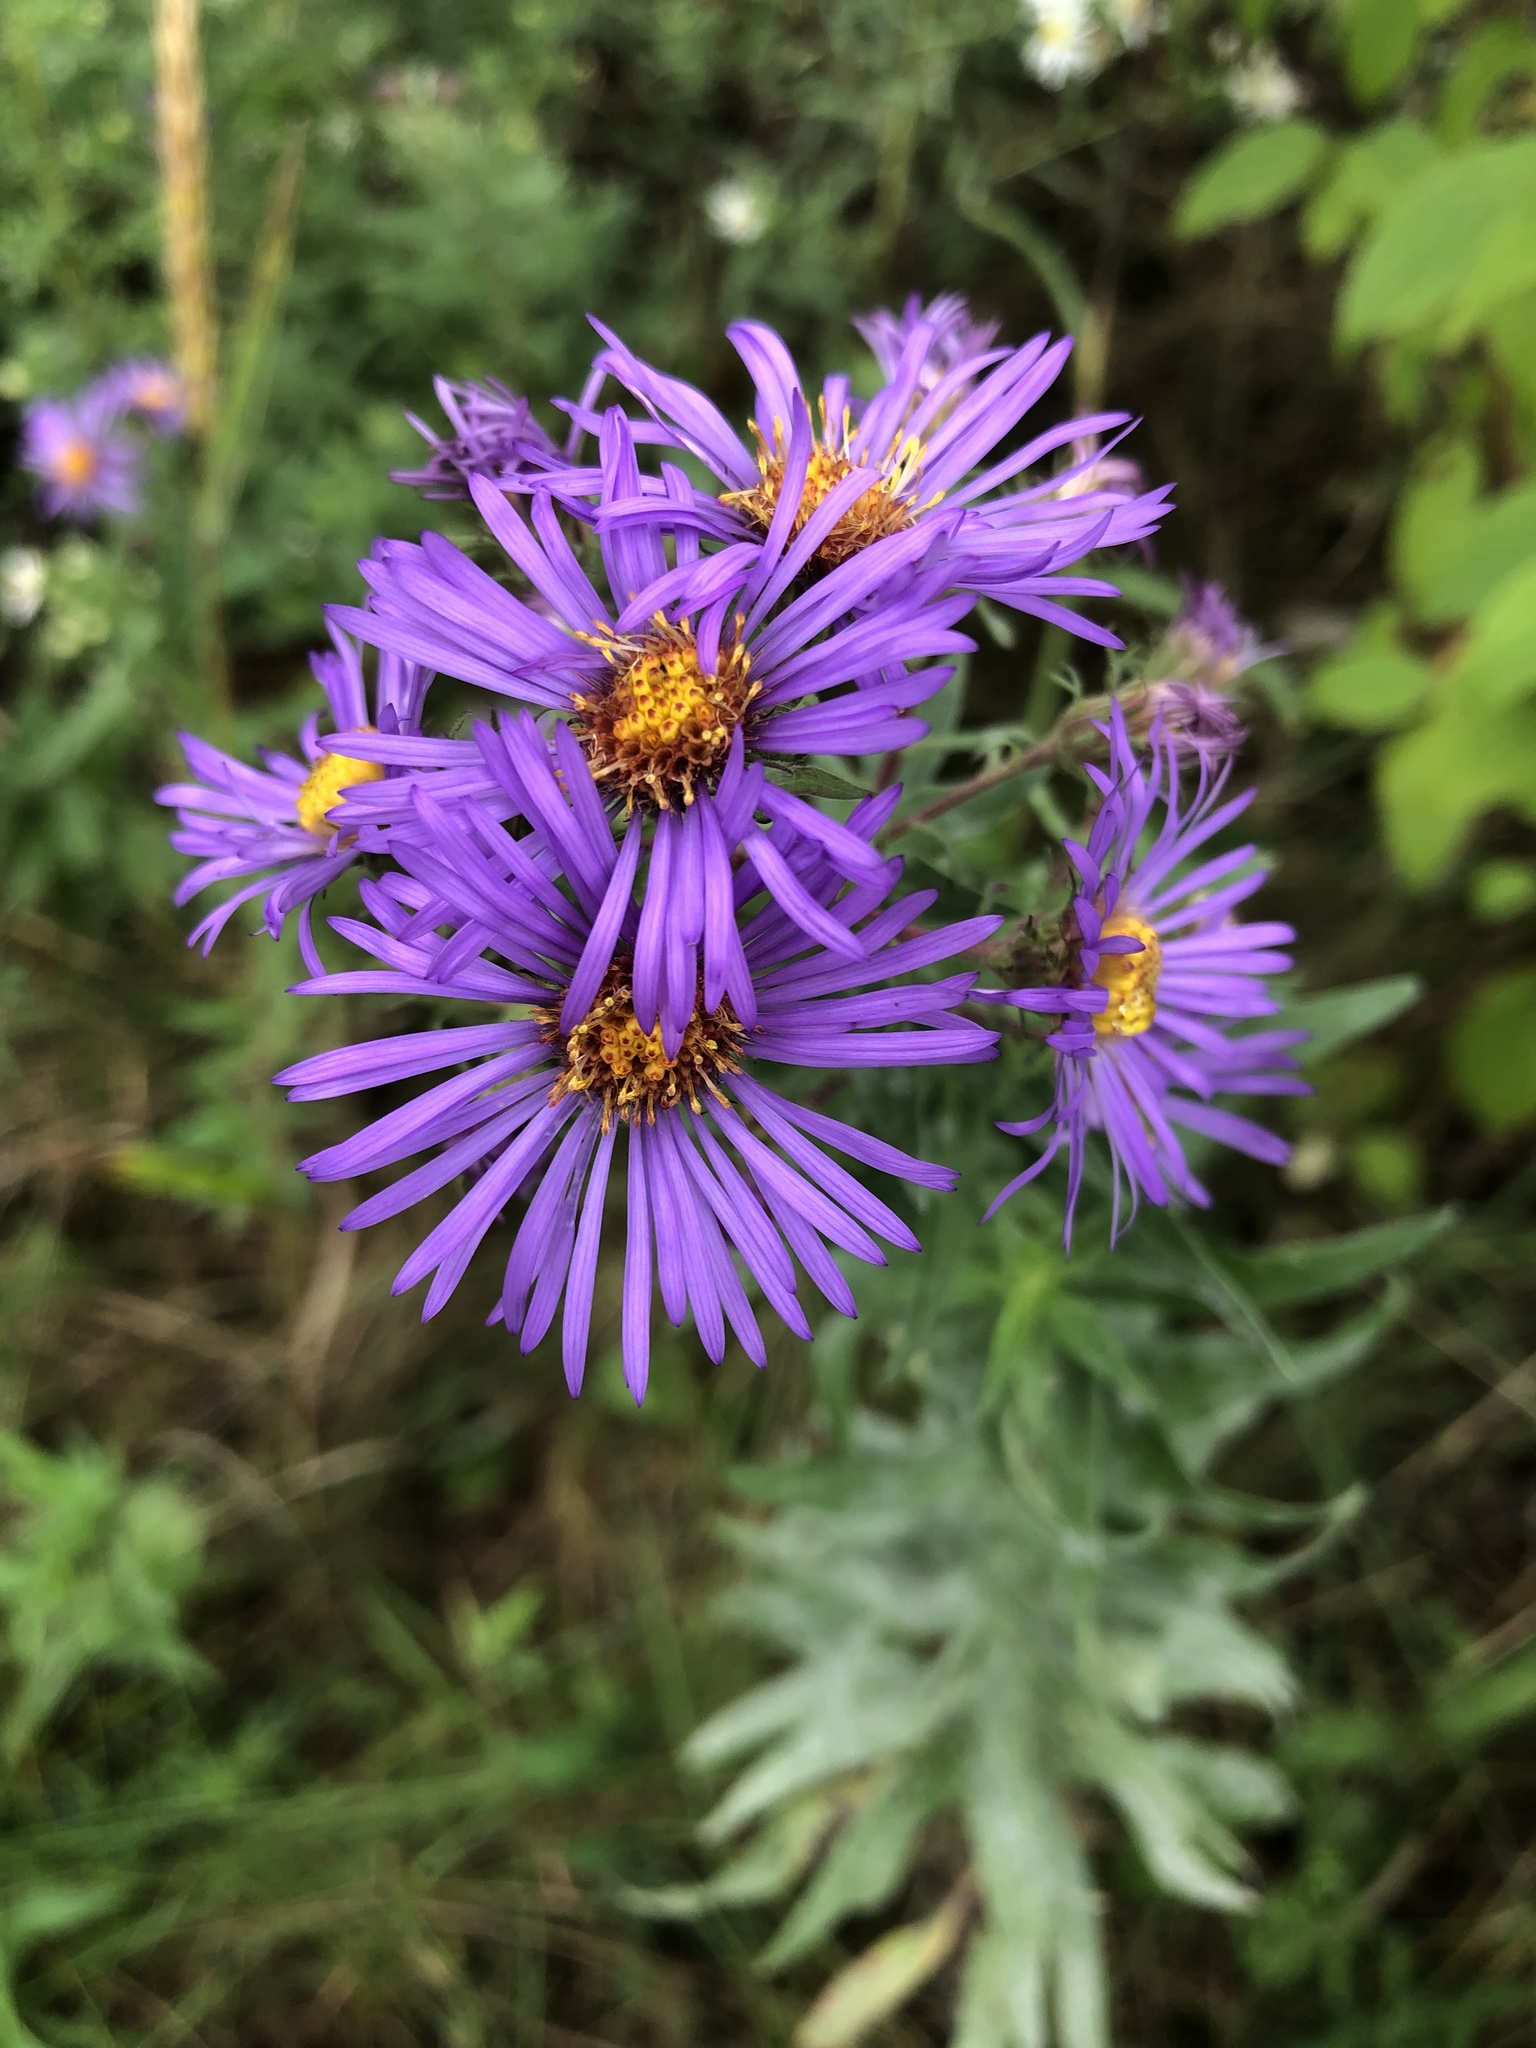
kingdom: Plantae
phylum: Tracheophyta
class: Magnoliopsida
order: Asterales
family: Asteraceae
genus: Symphyotrichum
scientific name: Symphyotrichum novae-angliae
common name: Michaelmas daisy
